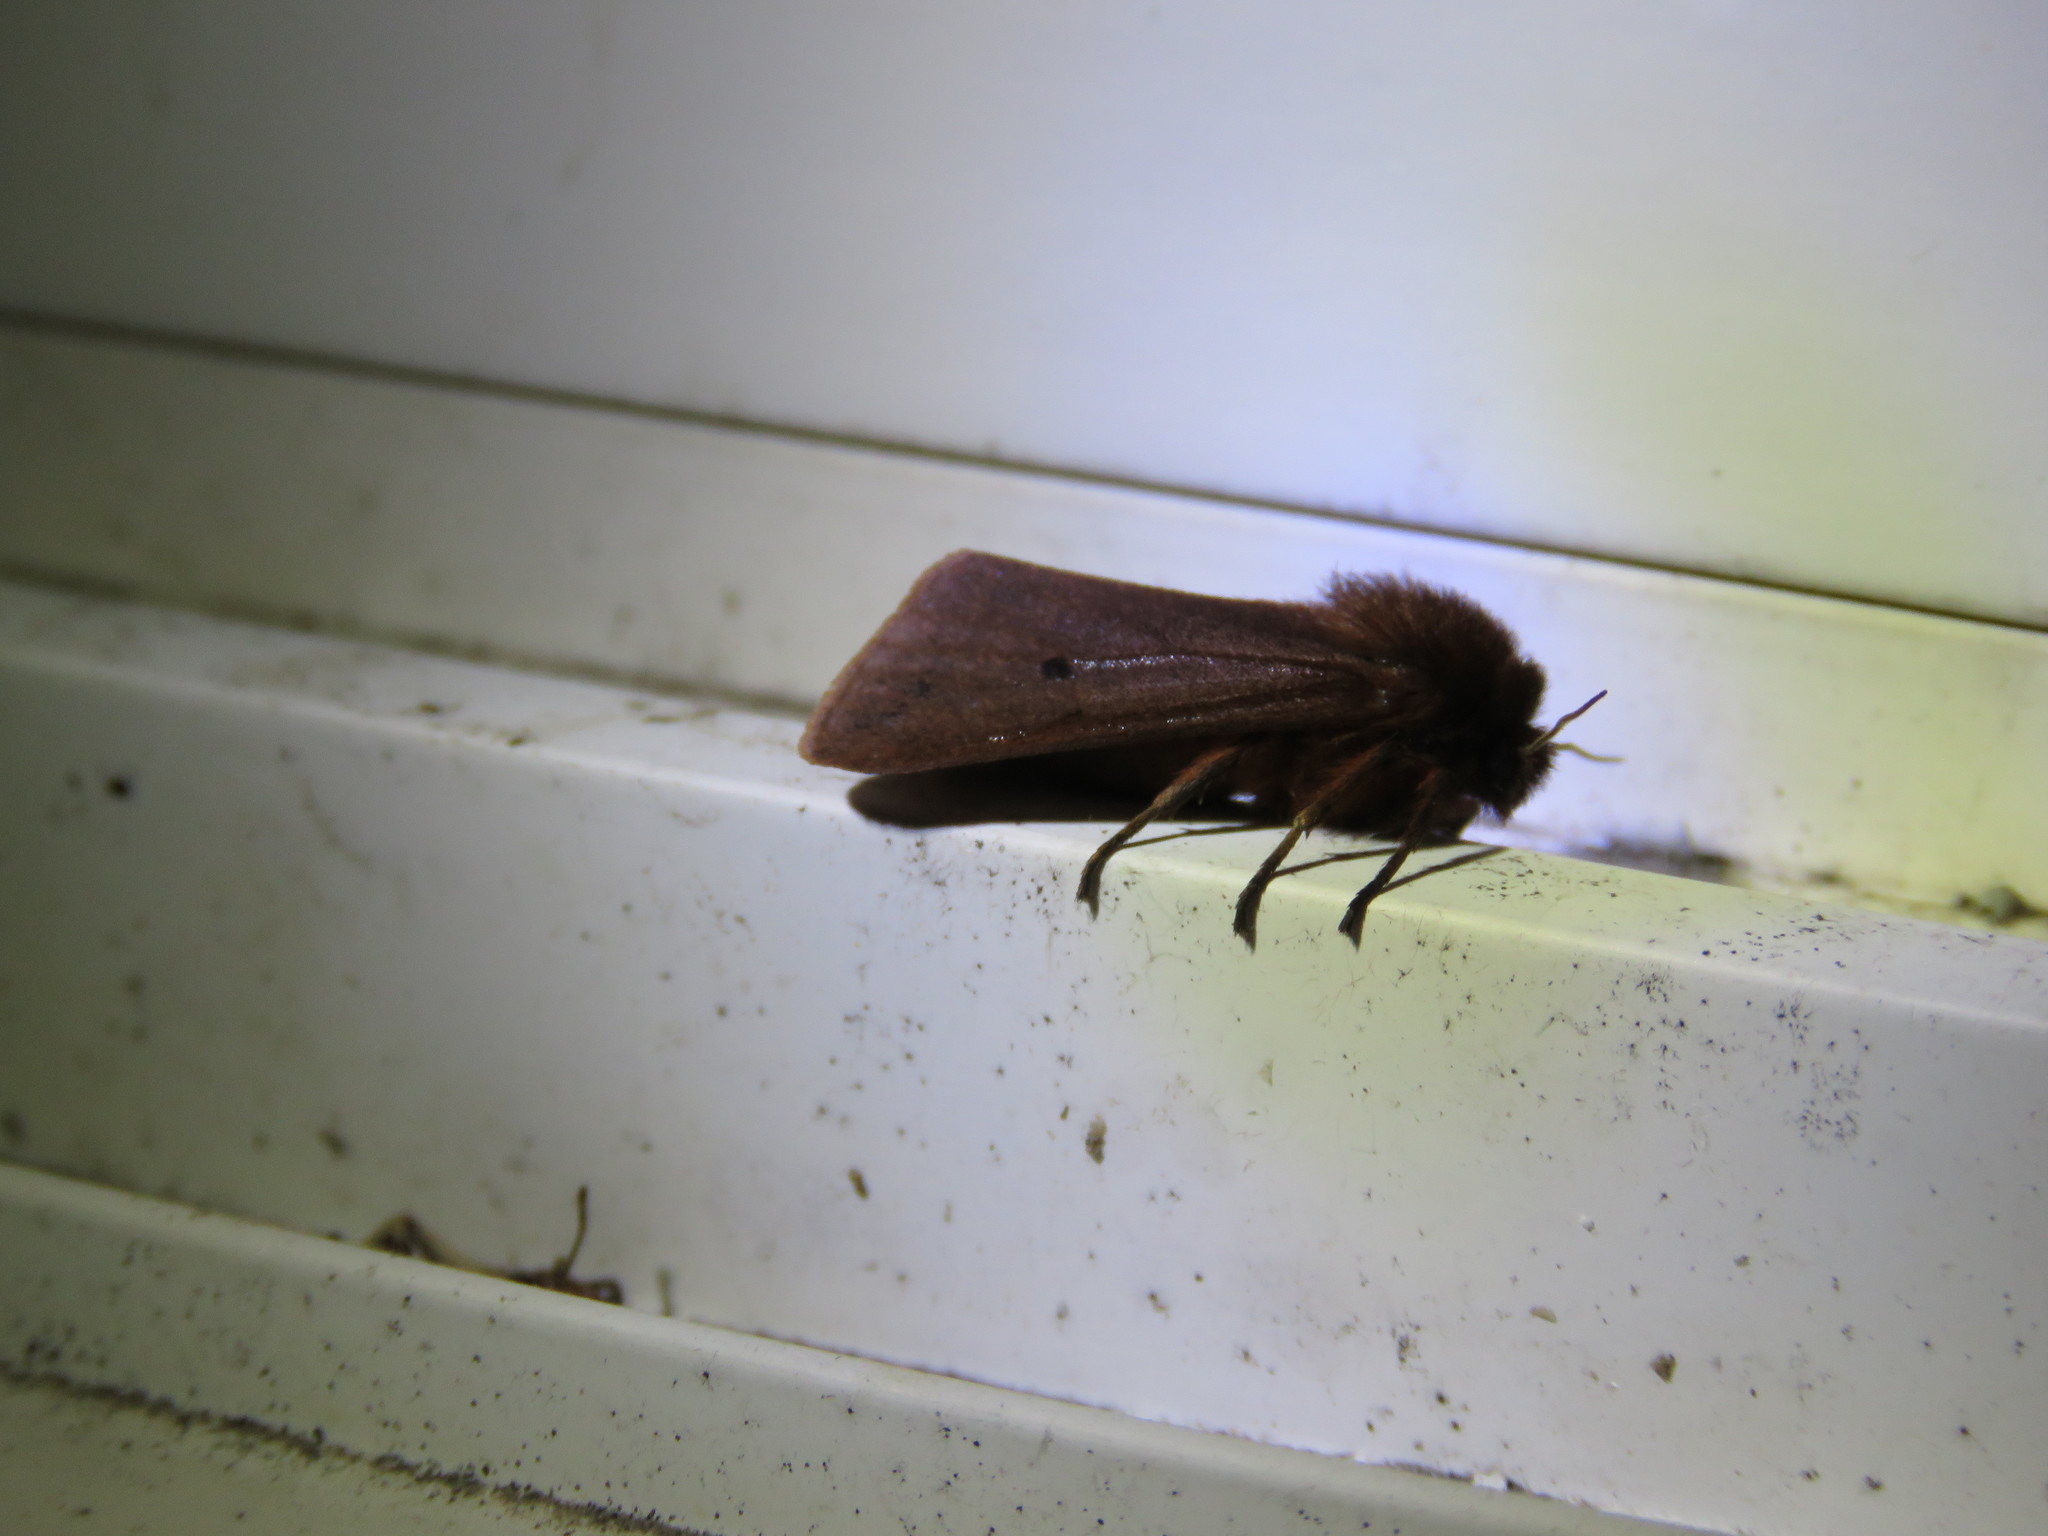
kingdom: Animalia
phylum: Arthropoda
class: Insecta
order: Lepidoptera
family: Erebidae
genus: Phragmatobia
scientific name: Phragmatobia fuliginosa
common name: Ruby tiger
